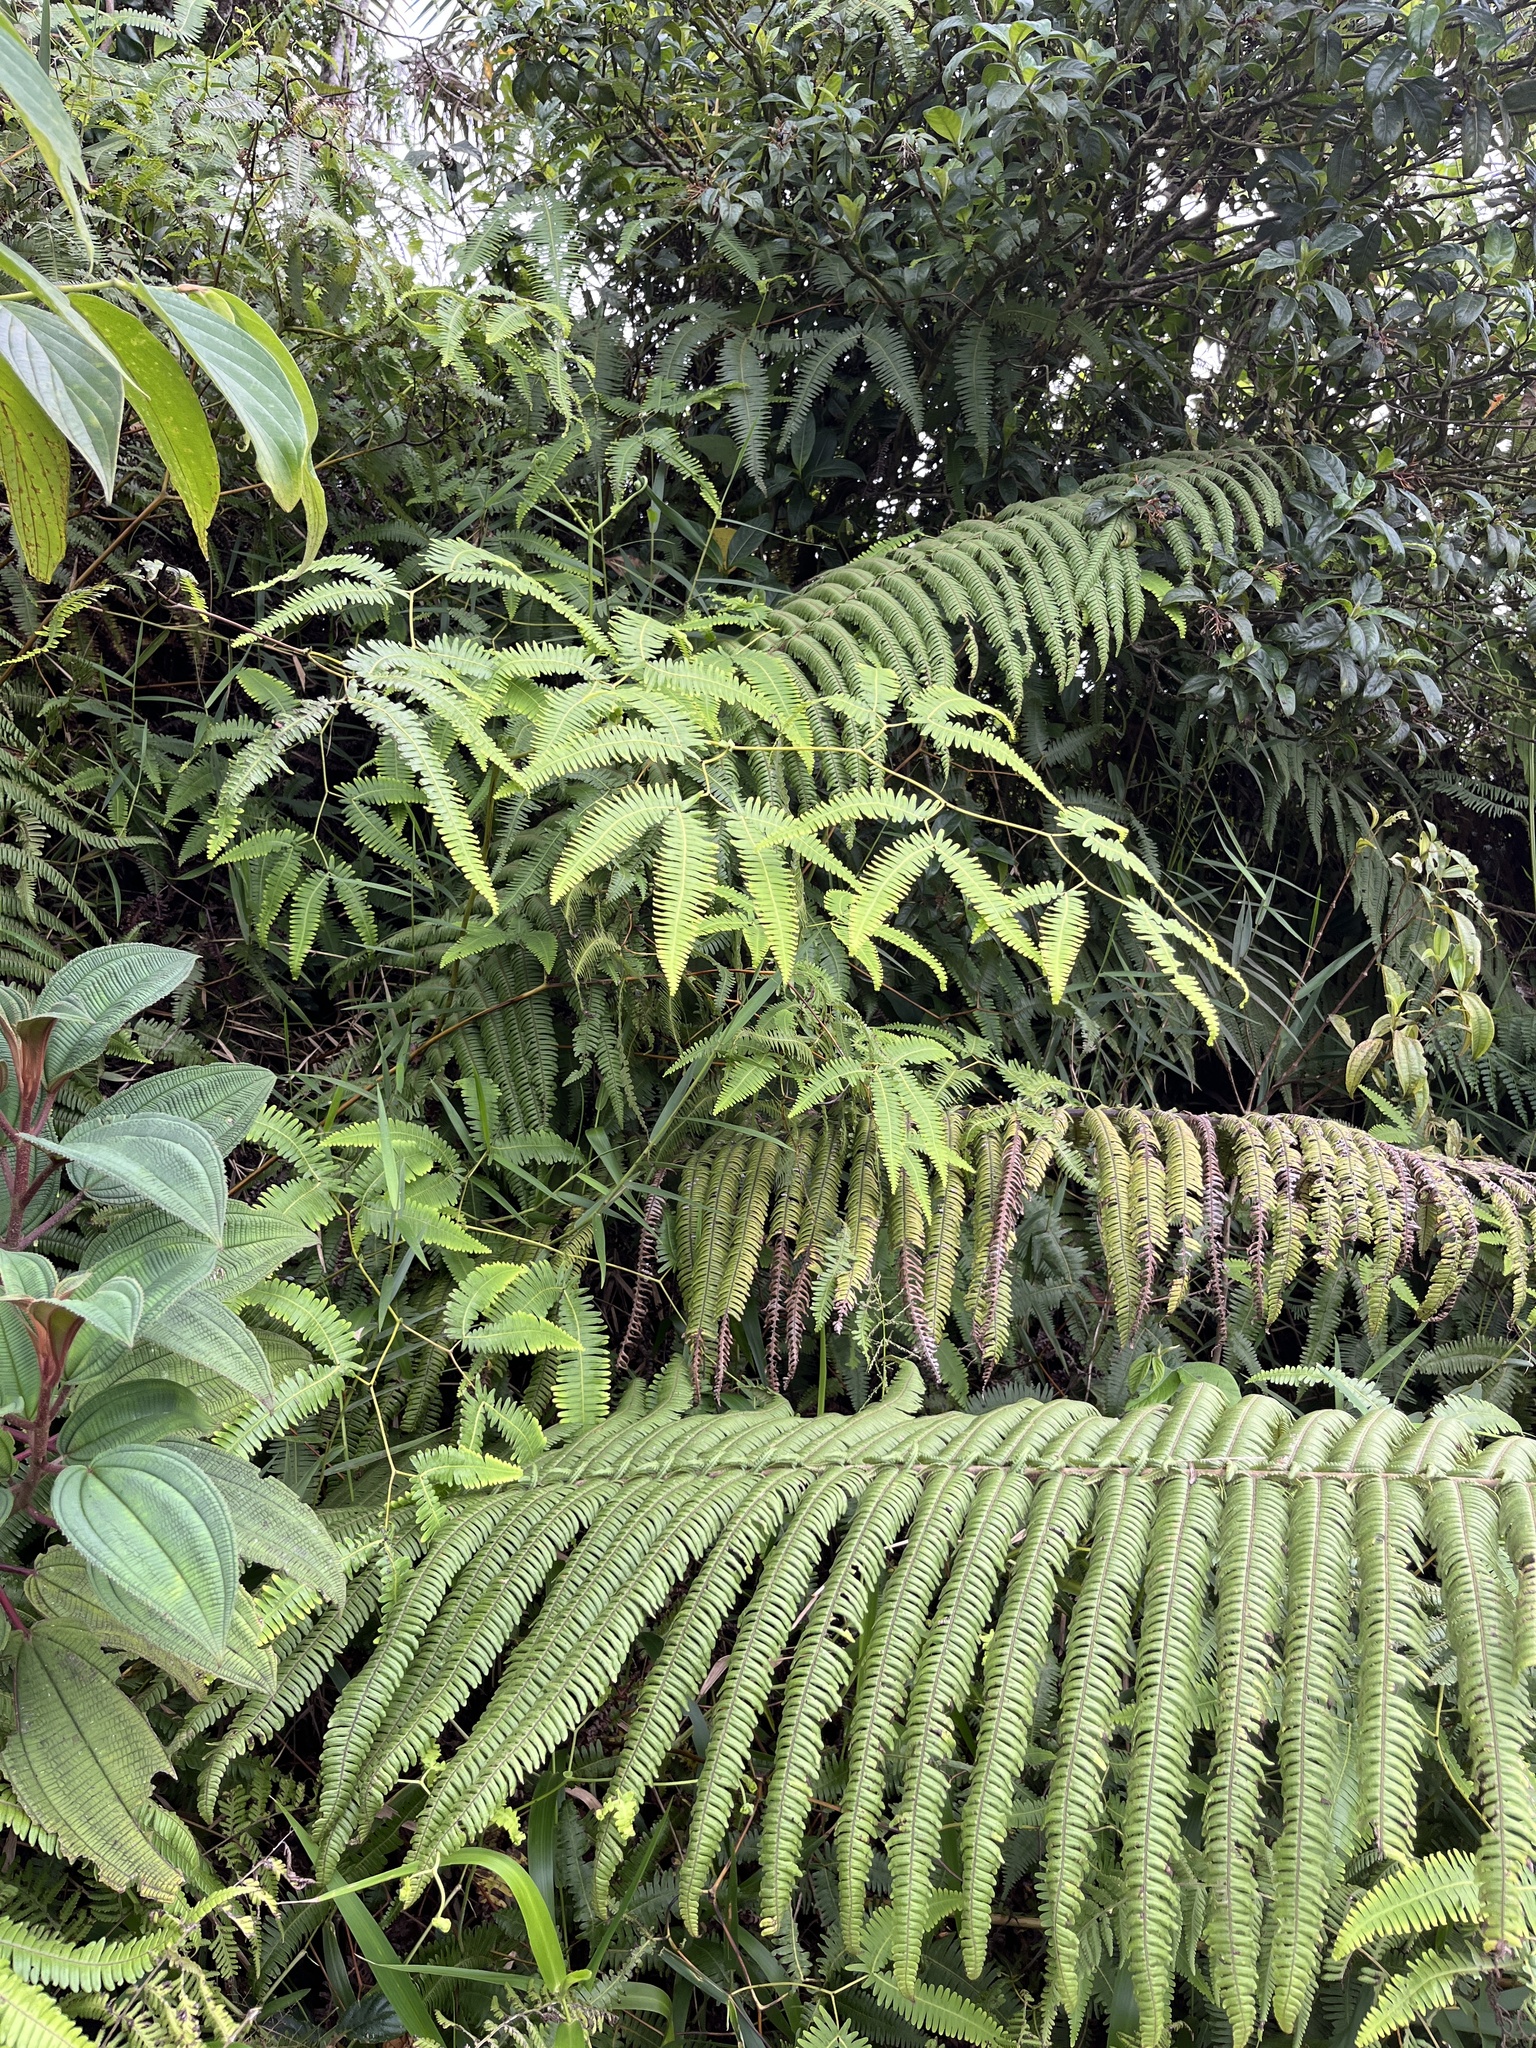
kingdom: Plantae
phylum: Tracheophyta
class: Polypodiopsida
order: Gleicheniales
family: Gleicheniaceae
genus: Gleichenella
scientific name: Gleichenella pectinata
